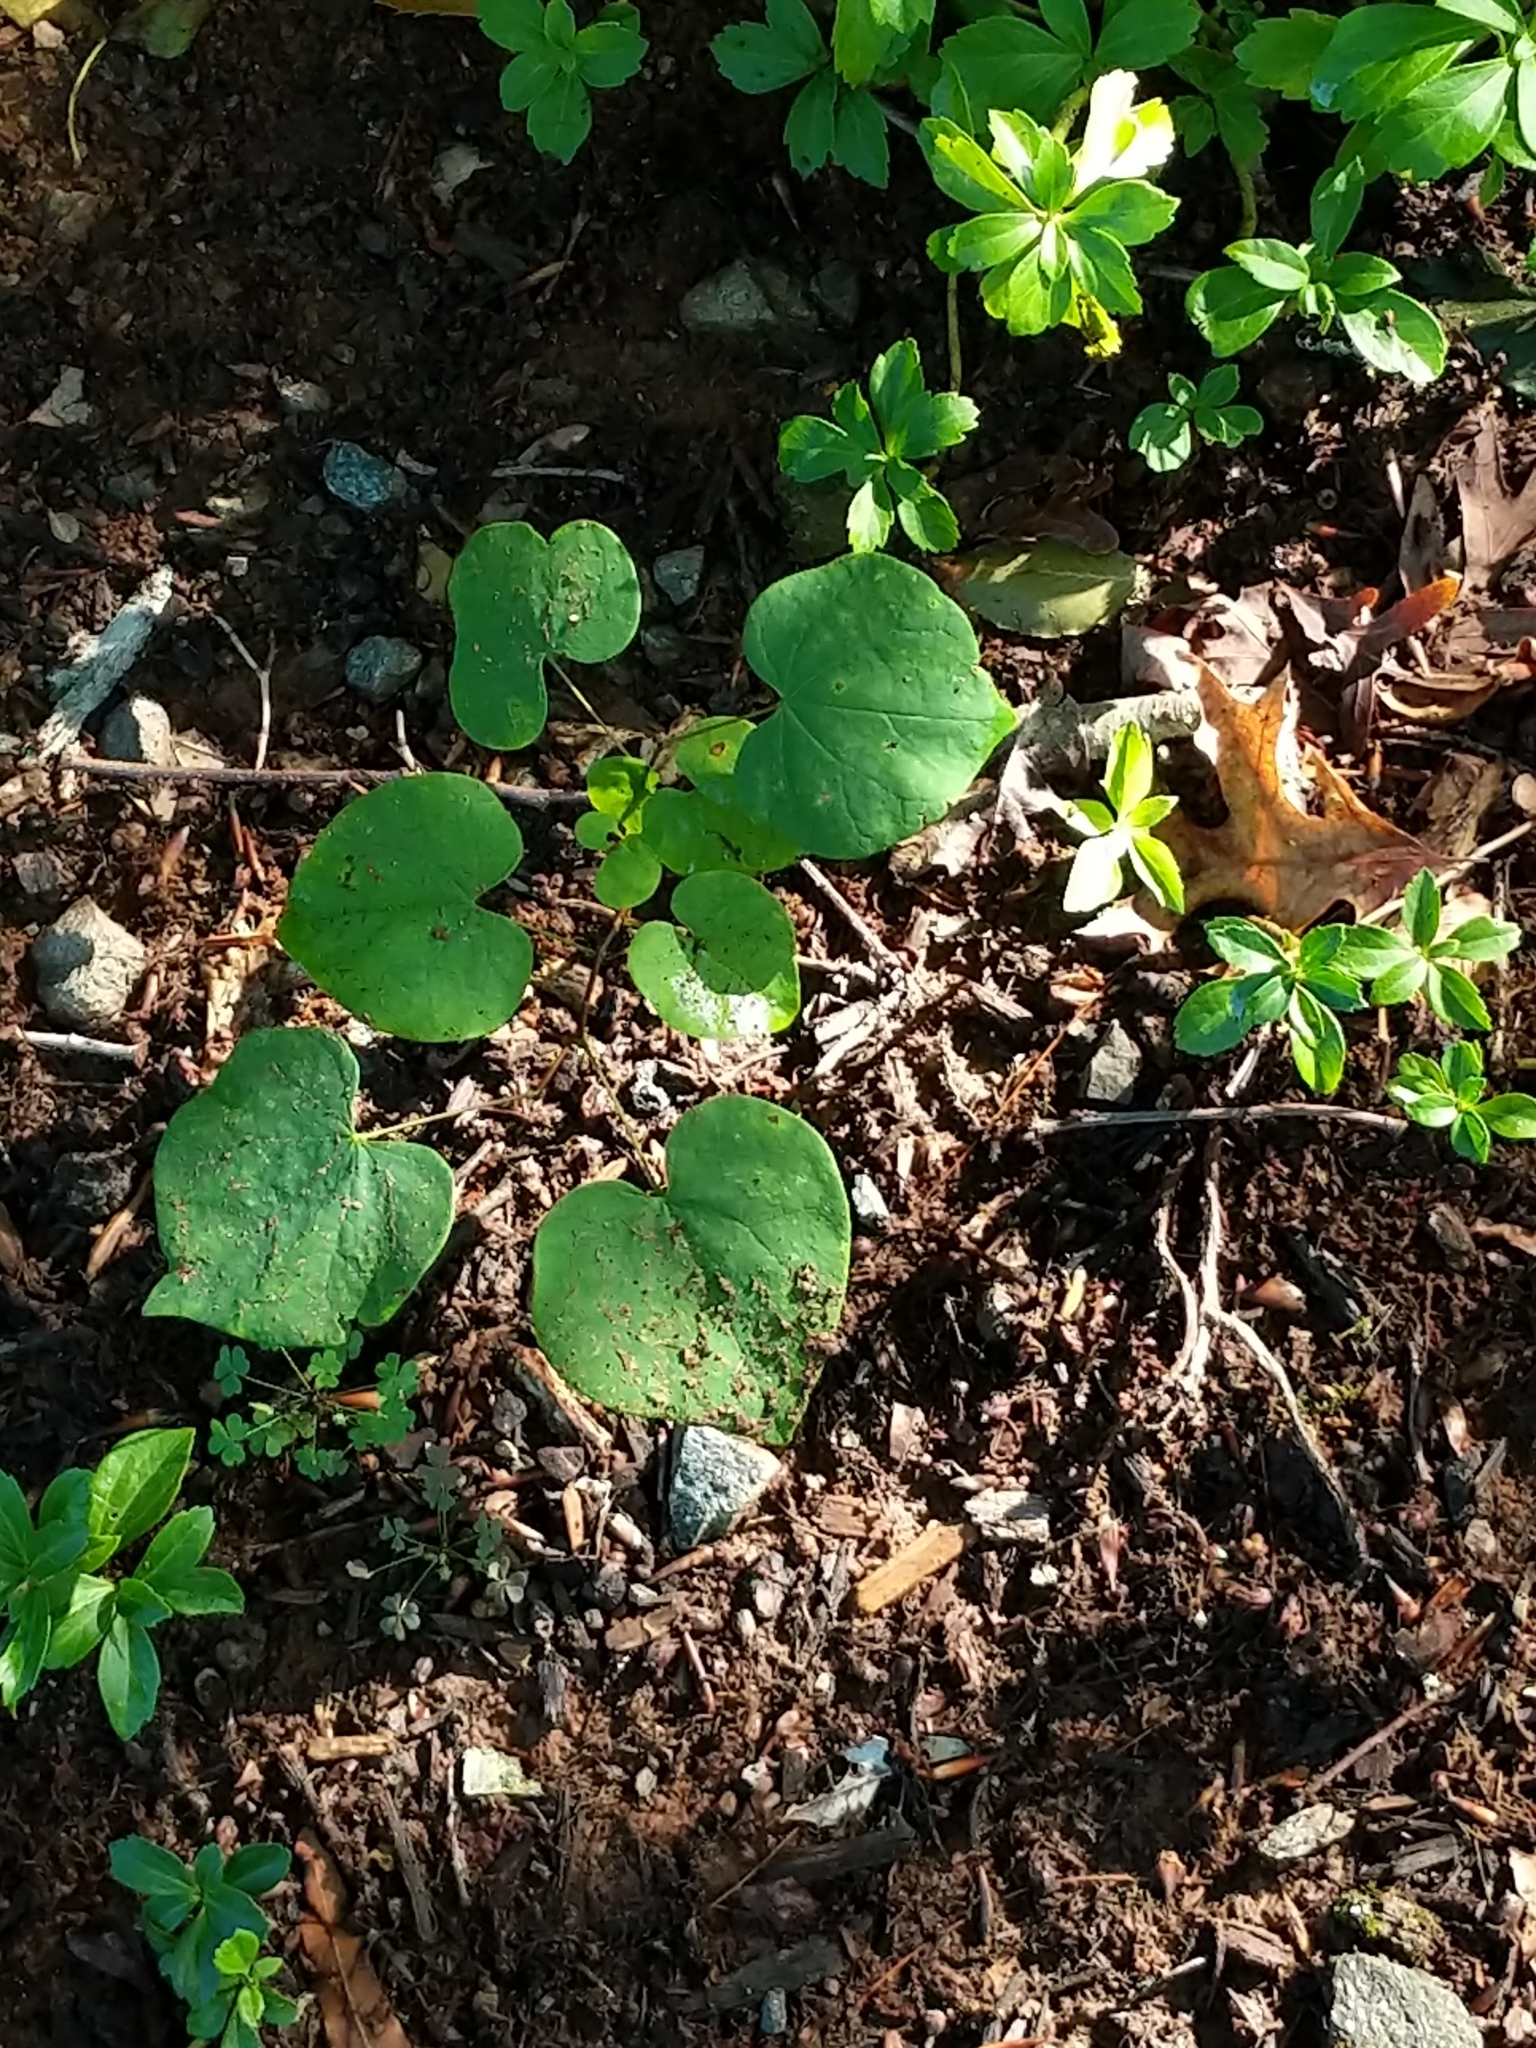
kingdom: Plantae
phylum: Tracheophyta
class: Magnoliopsida
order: Fabales
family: Fabaceae
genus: Cercis
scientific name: Cercis canadensis
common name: Eastern redbud
